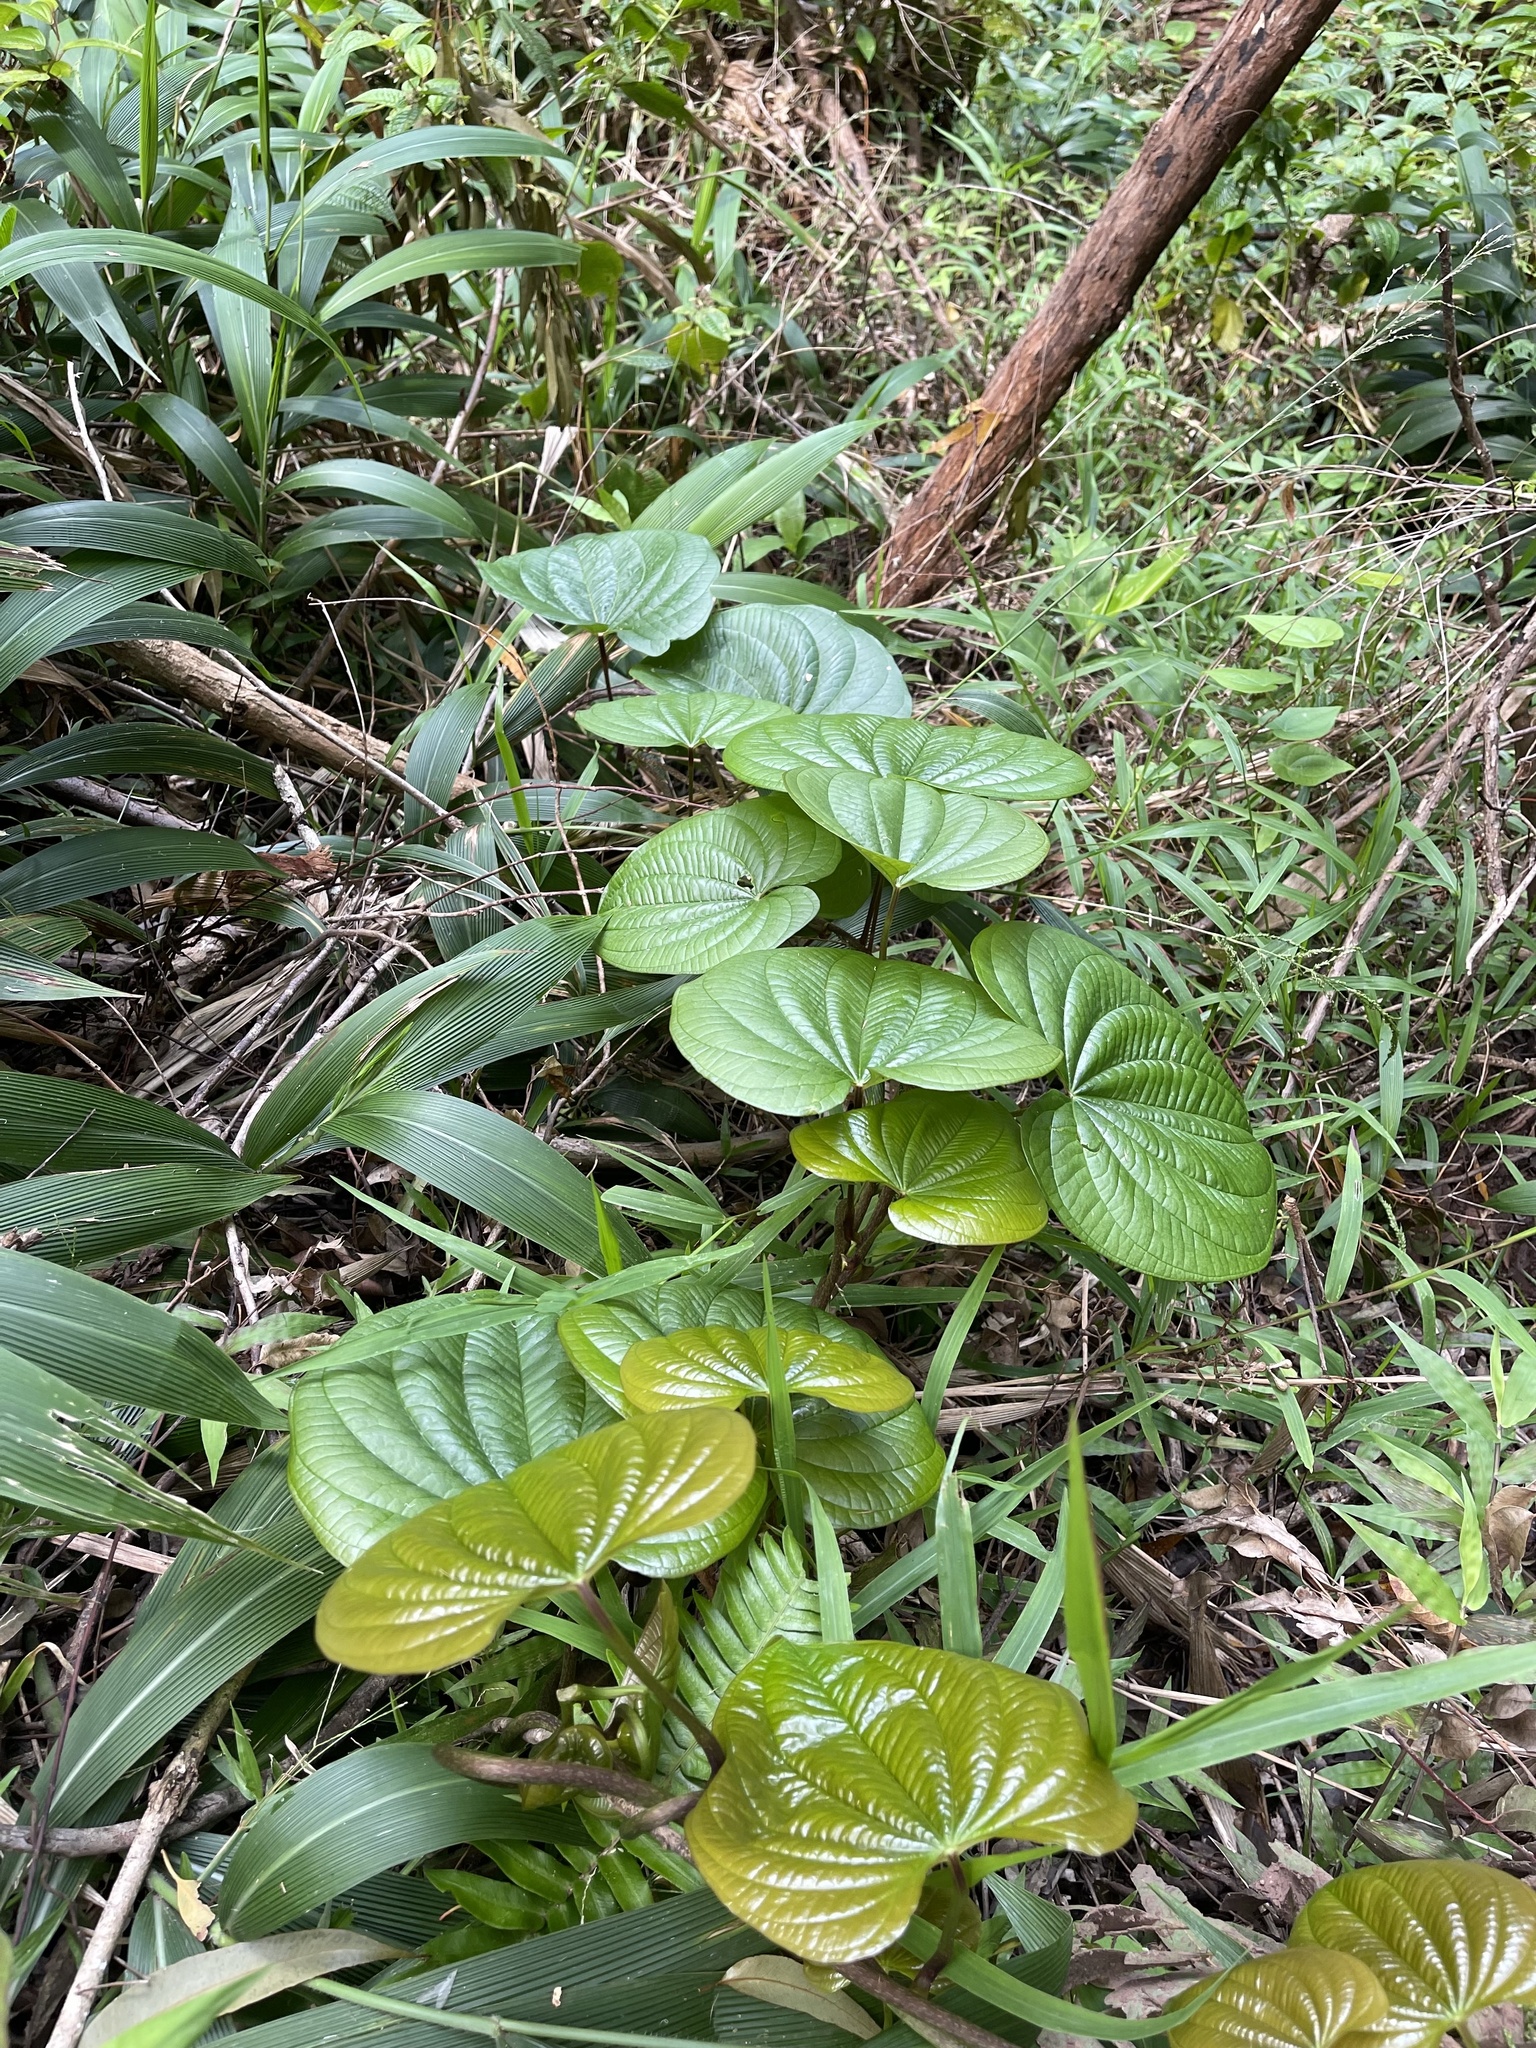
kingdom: Plantae
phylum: Tracheophyta
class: Liliopsida
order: Dioscoreales
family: Dioscoreaceae
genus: Dioscorea
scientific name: Dioscorea bulbifera
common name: Air yam
